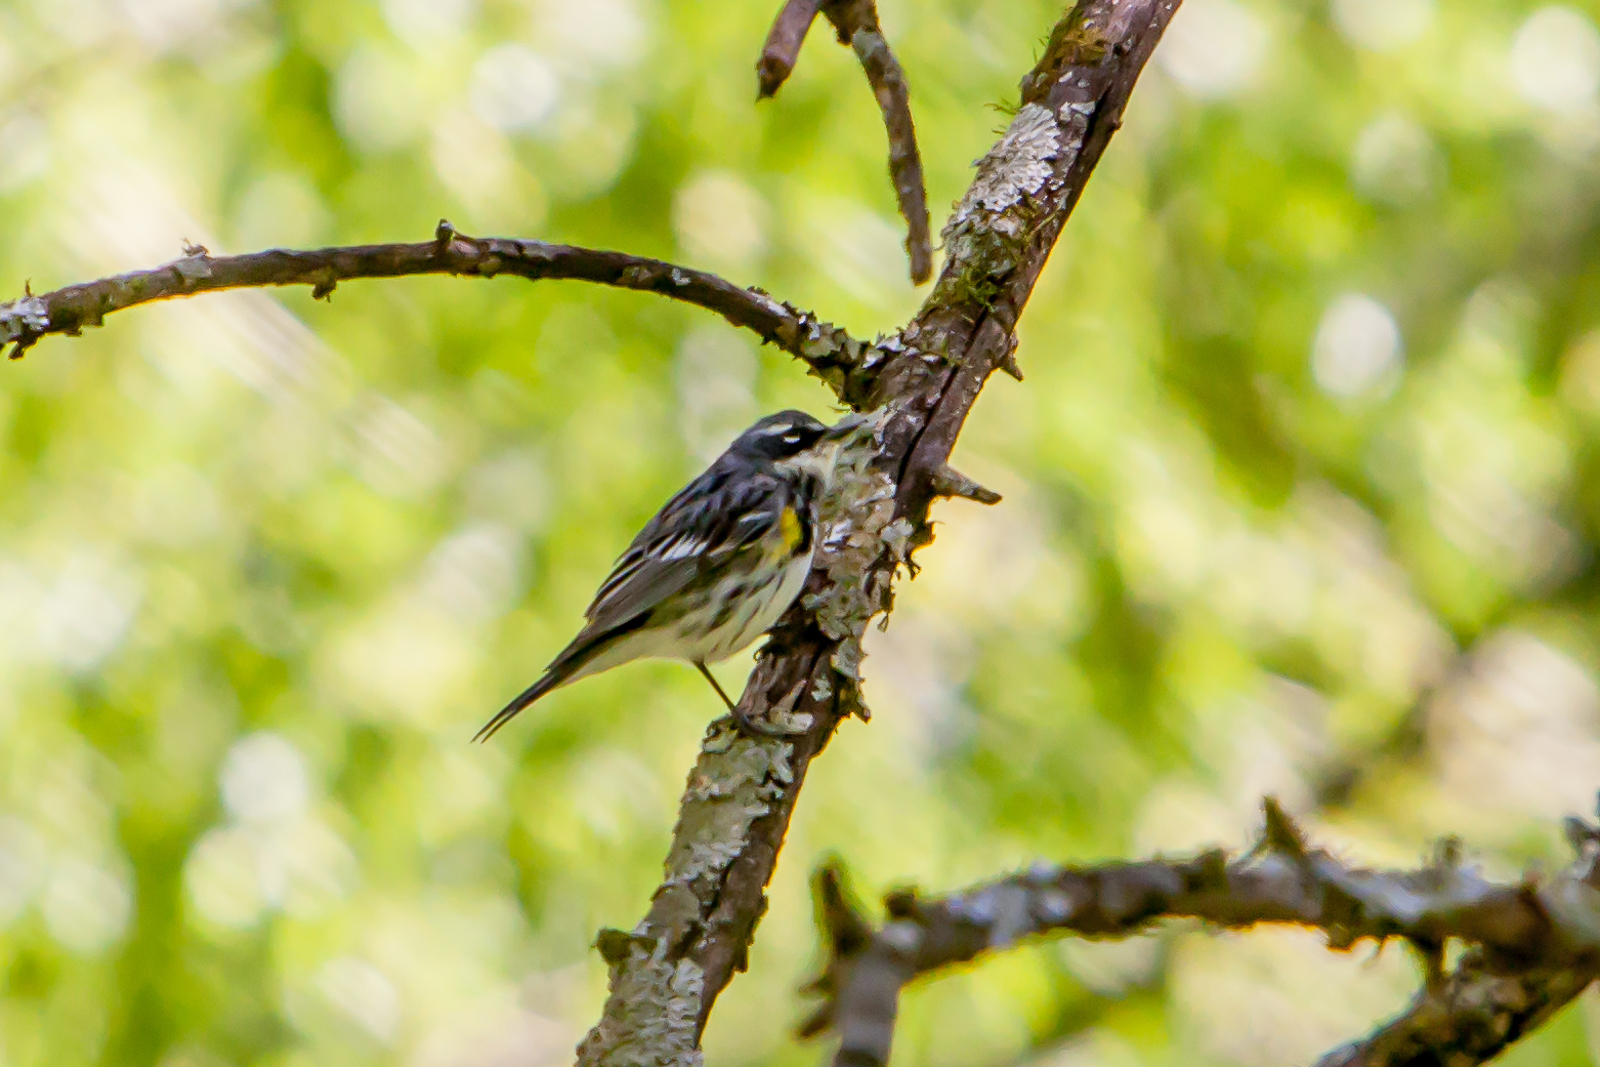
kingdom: Animalia
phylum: Chordata
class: Aves
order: Passeriformes
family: Parulidae
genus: Setophaga
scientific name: Setophaga coronata
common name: Myrtle warbler
